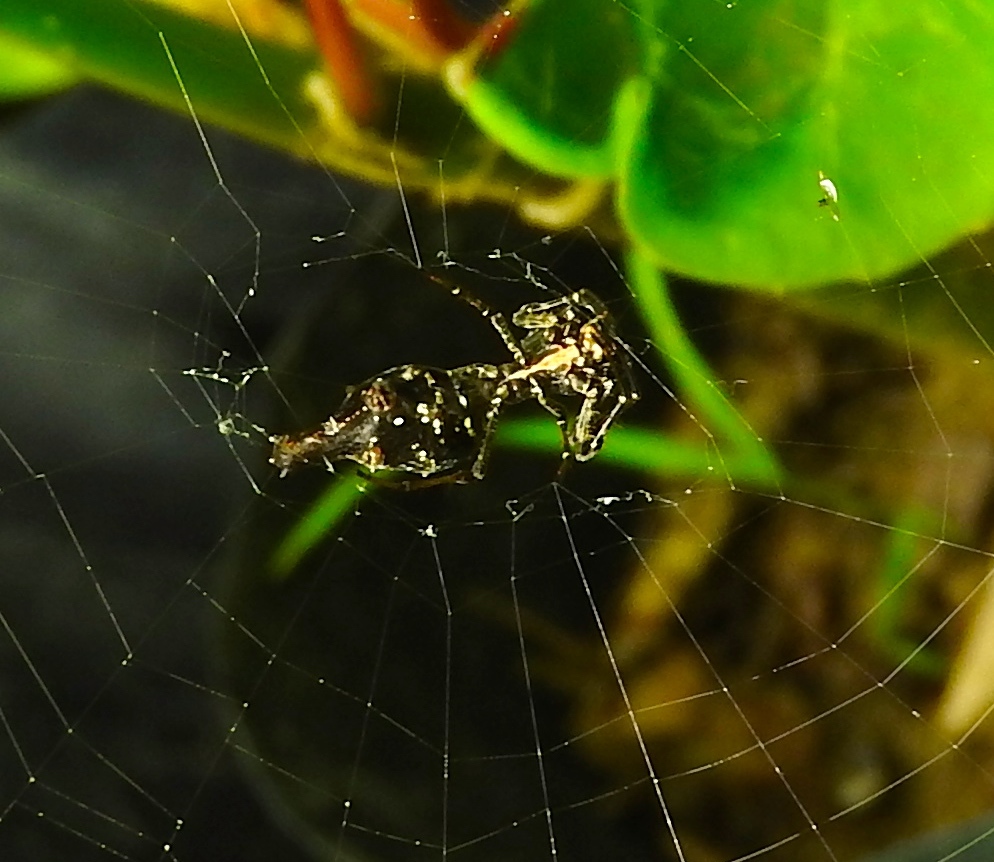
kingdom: Animalia
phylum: Arthropoda
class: Arachnida
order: Araneae
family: Araneidae
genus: Edricus
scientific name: Edricus productus
